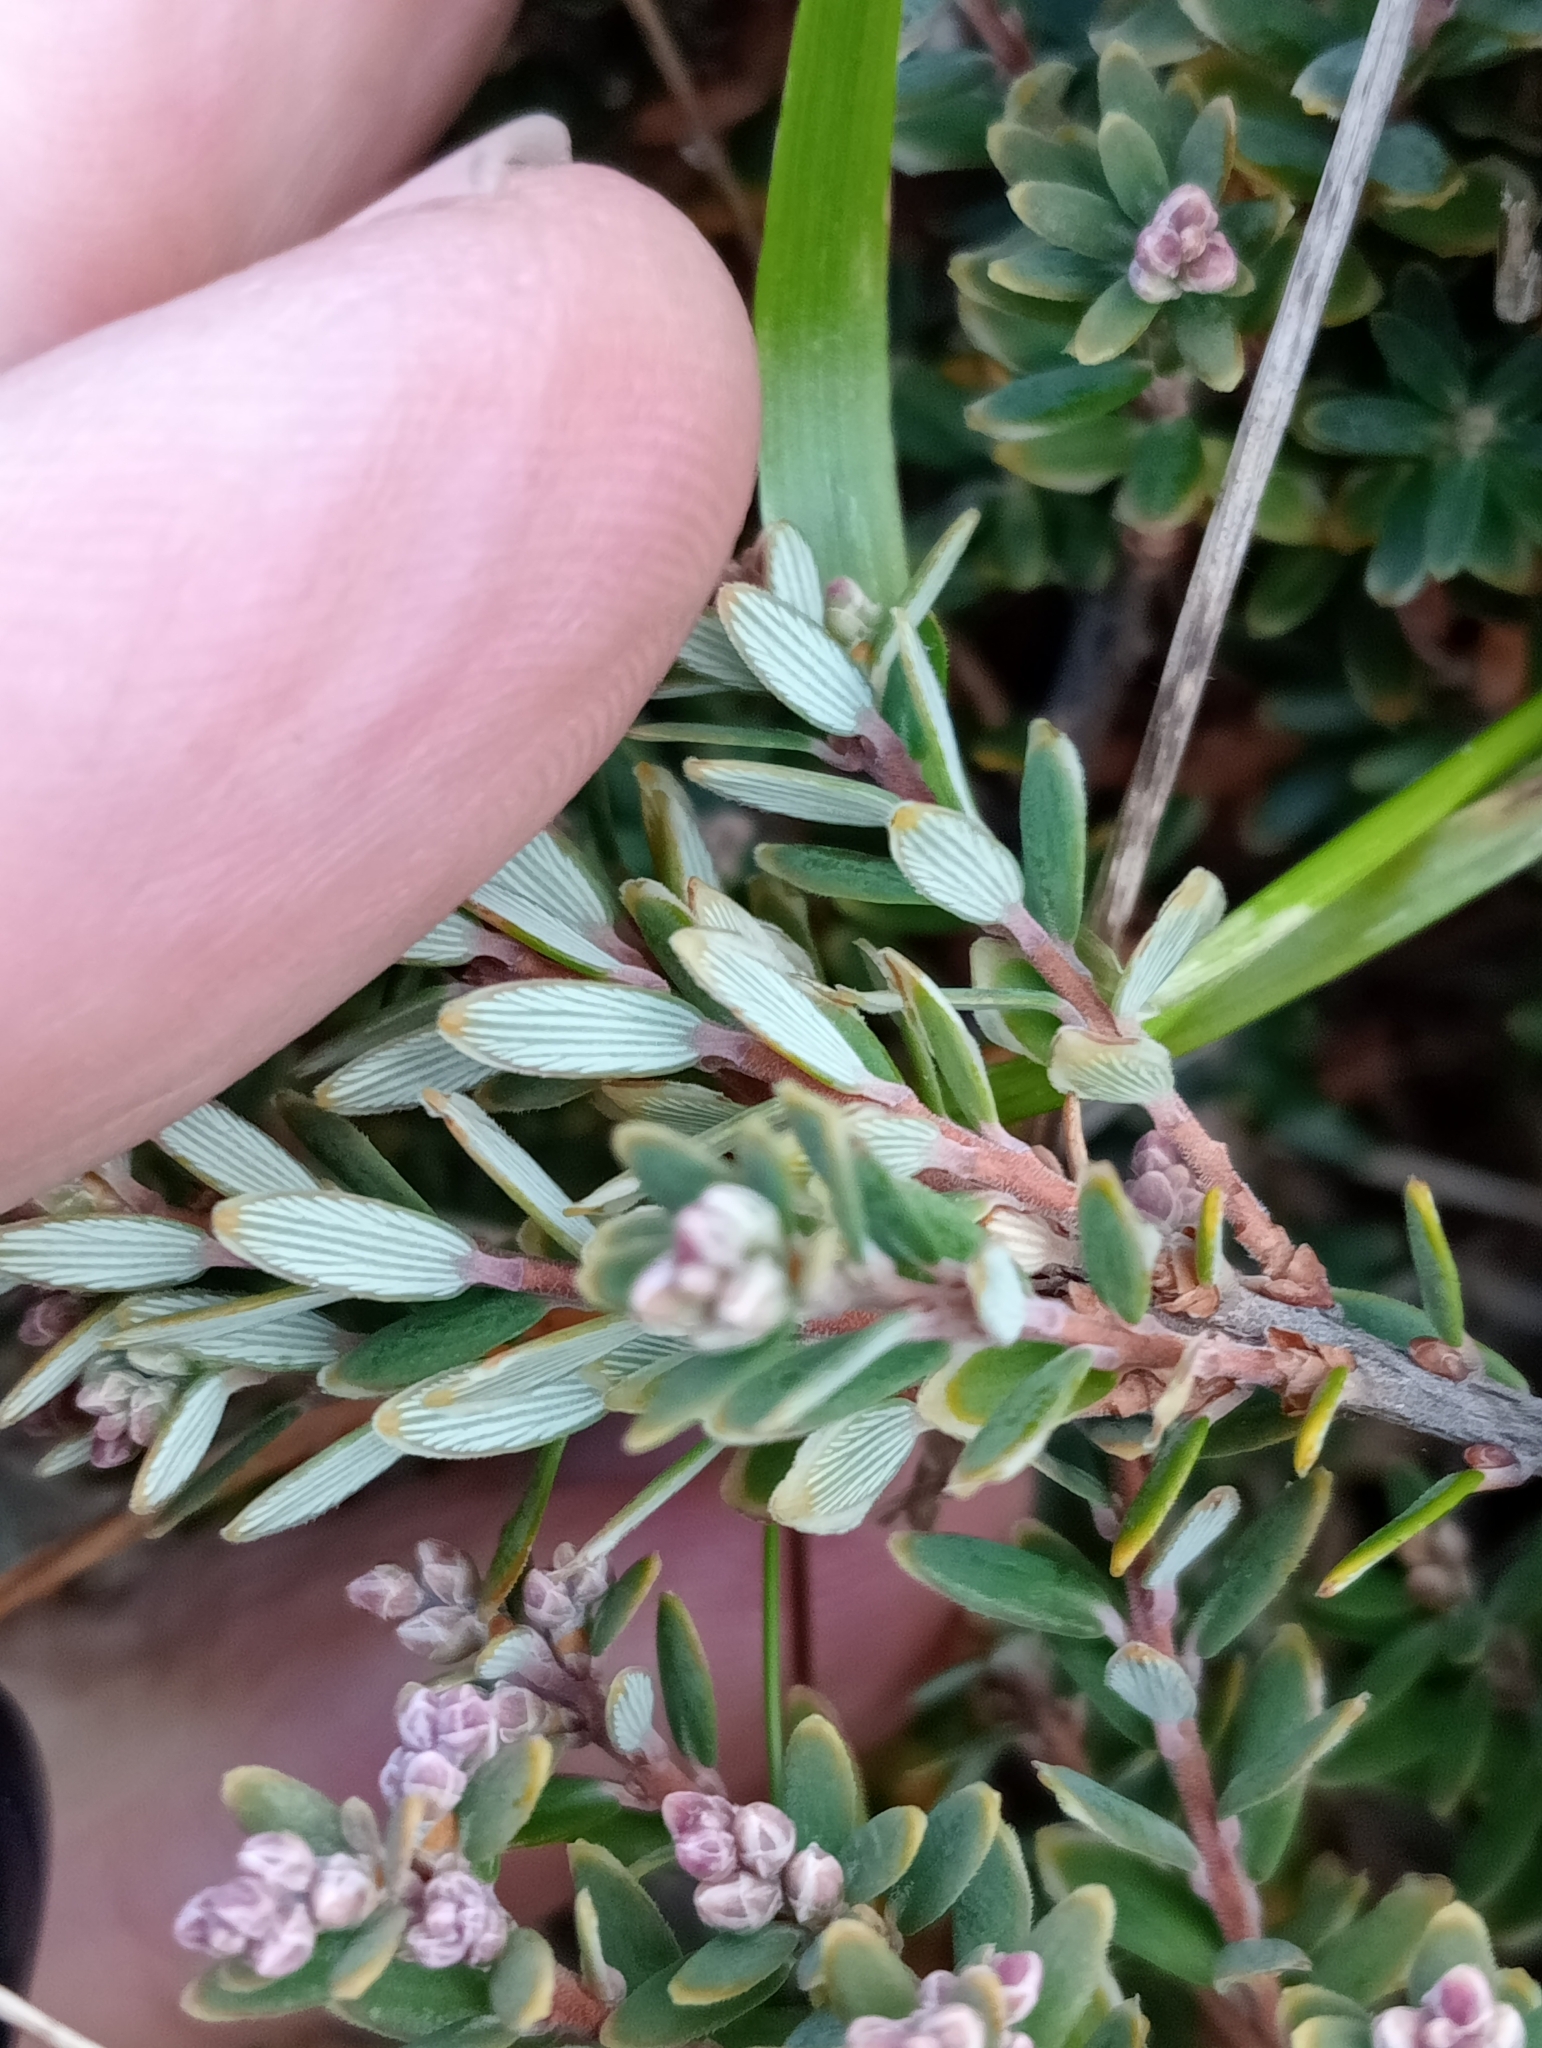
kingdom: Plantae
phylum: Tracheophyta
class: Magnoliopsida
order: Ericales
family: Ericaceae
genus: Acrothamnus
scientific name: Acrothamnus colensoi
